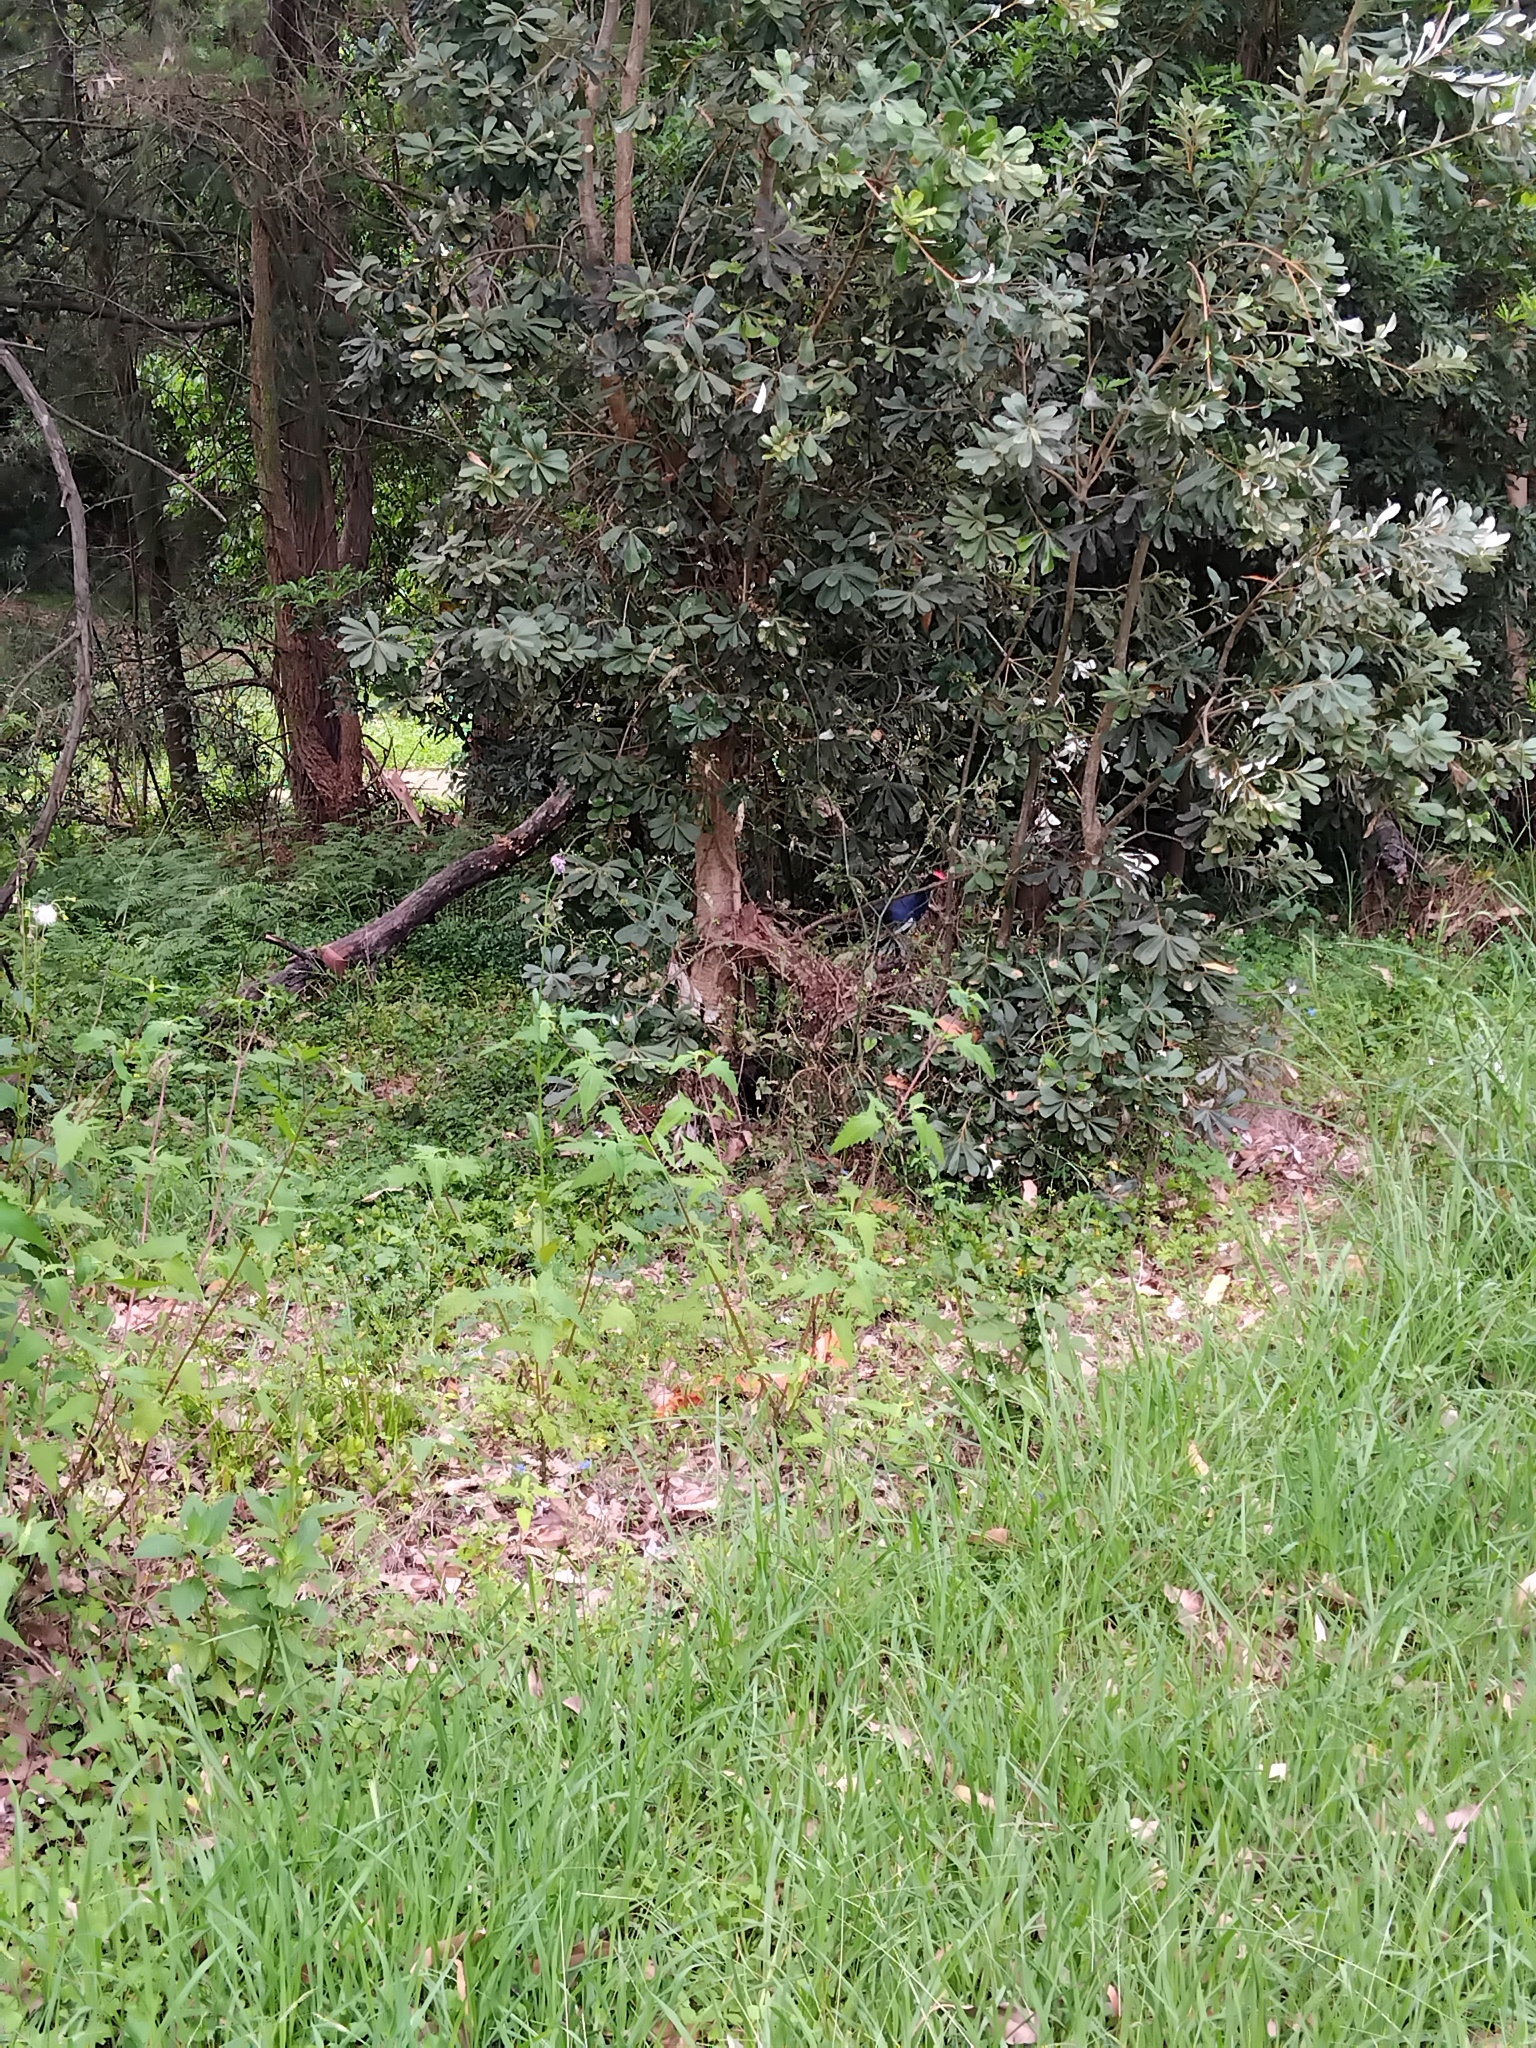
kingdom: Animalia
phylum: Chordata
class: Aves
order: Gruiformes
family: Rallidae
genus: Porphyrio
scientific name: Porphyrio melanotus
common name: Australasian swamphen
